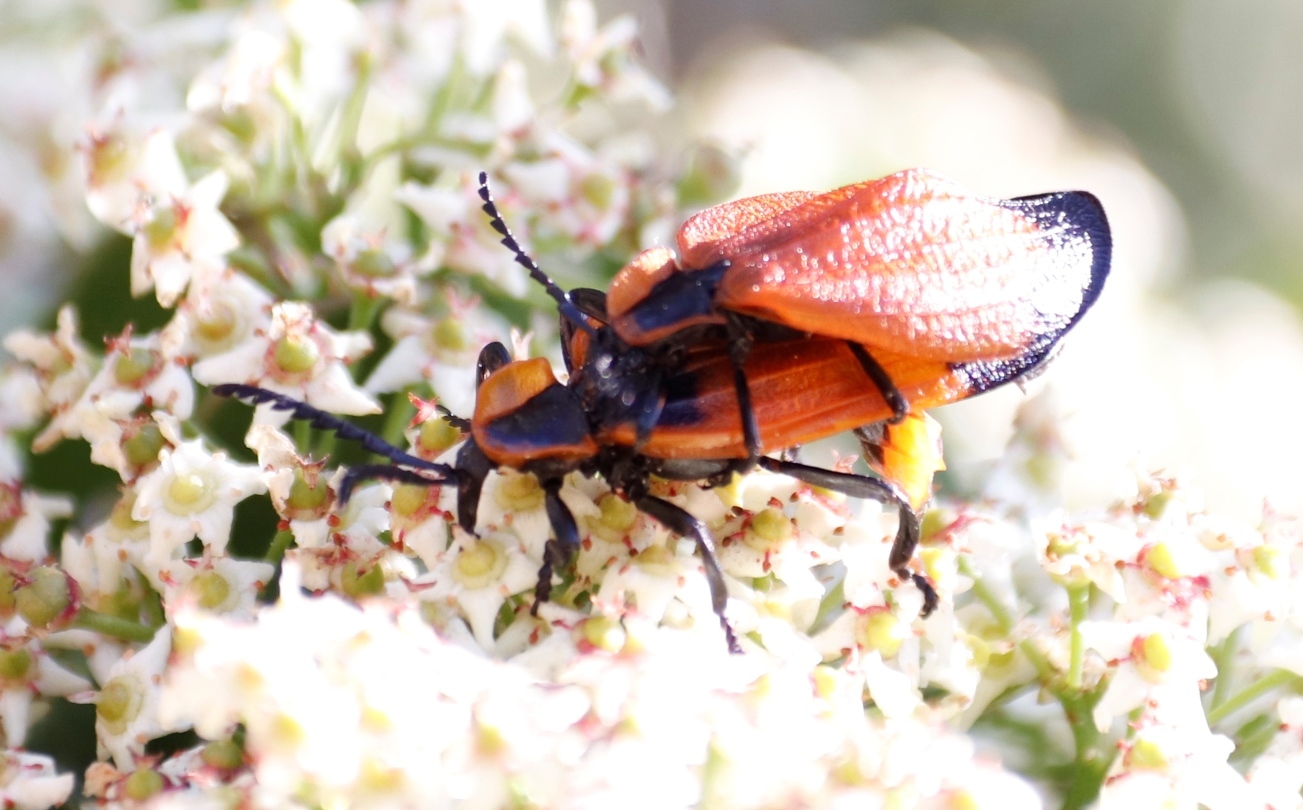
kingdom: Animalia
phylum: Arthropoda
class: Insecta
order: Coleoptera
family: Lycidae
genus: Lycus
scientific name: Lycus
